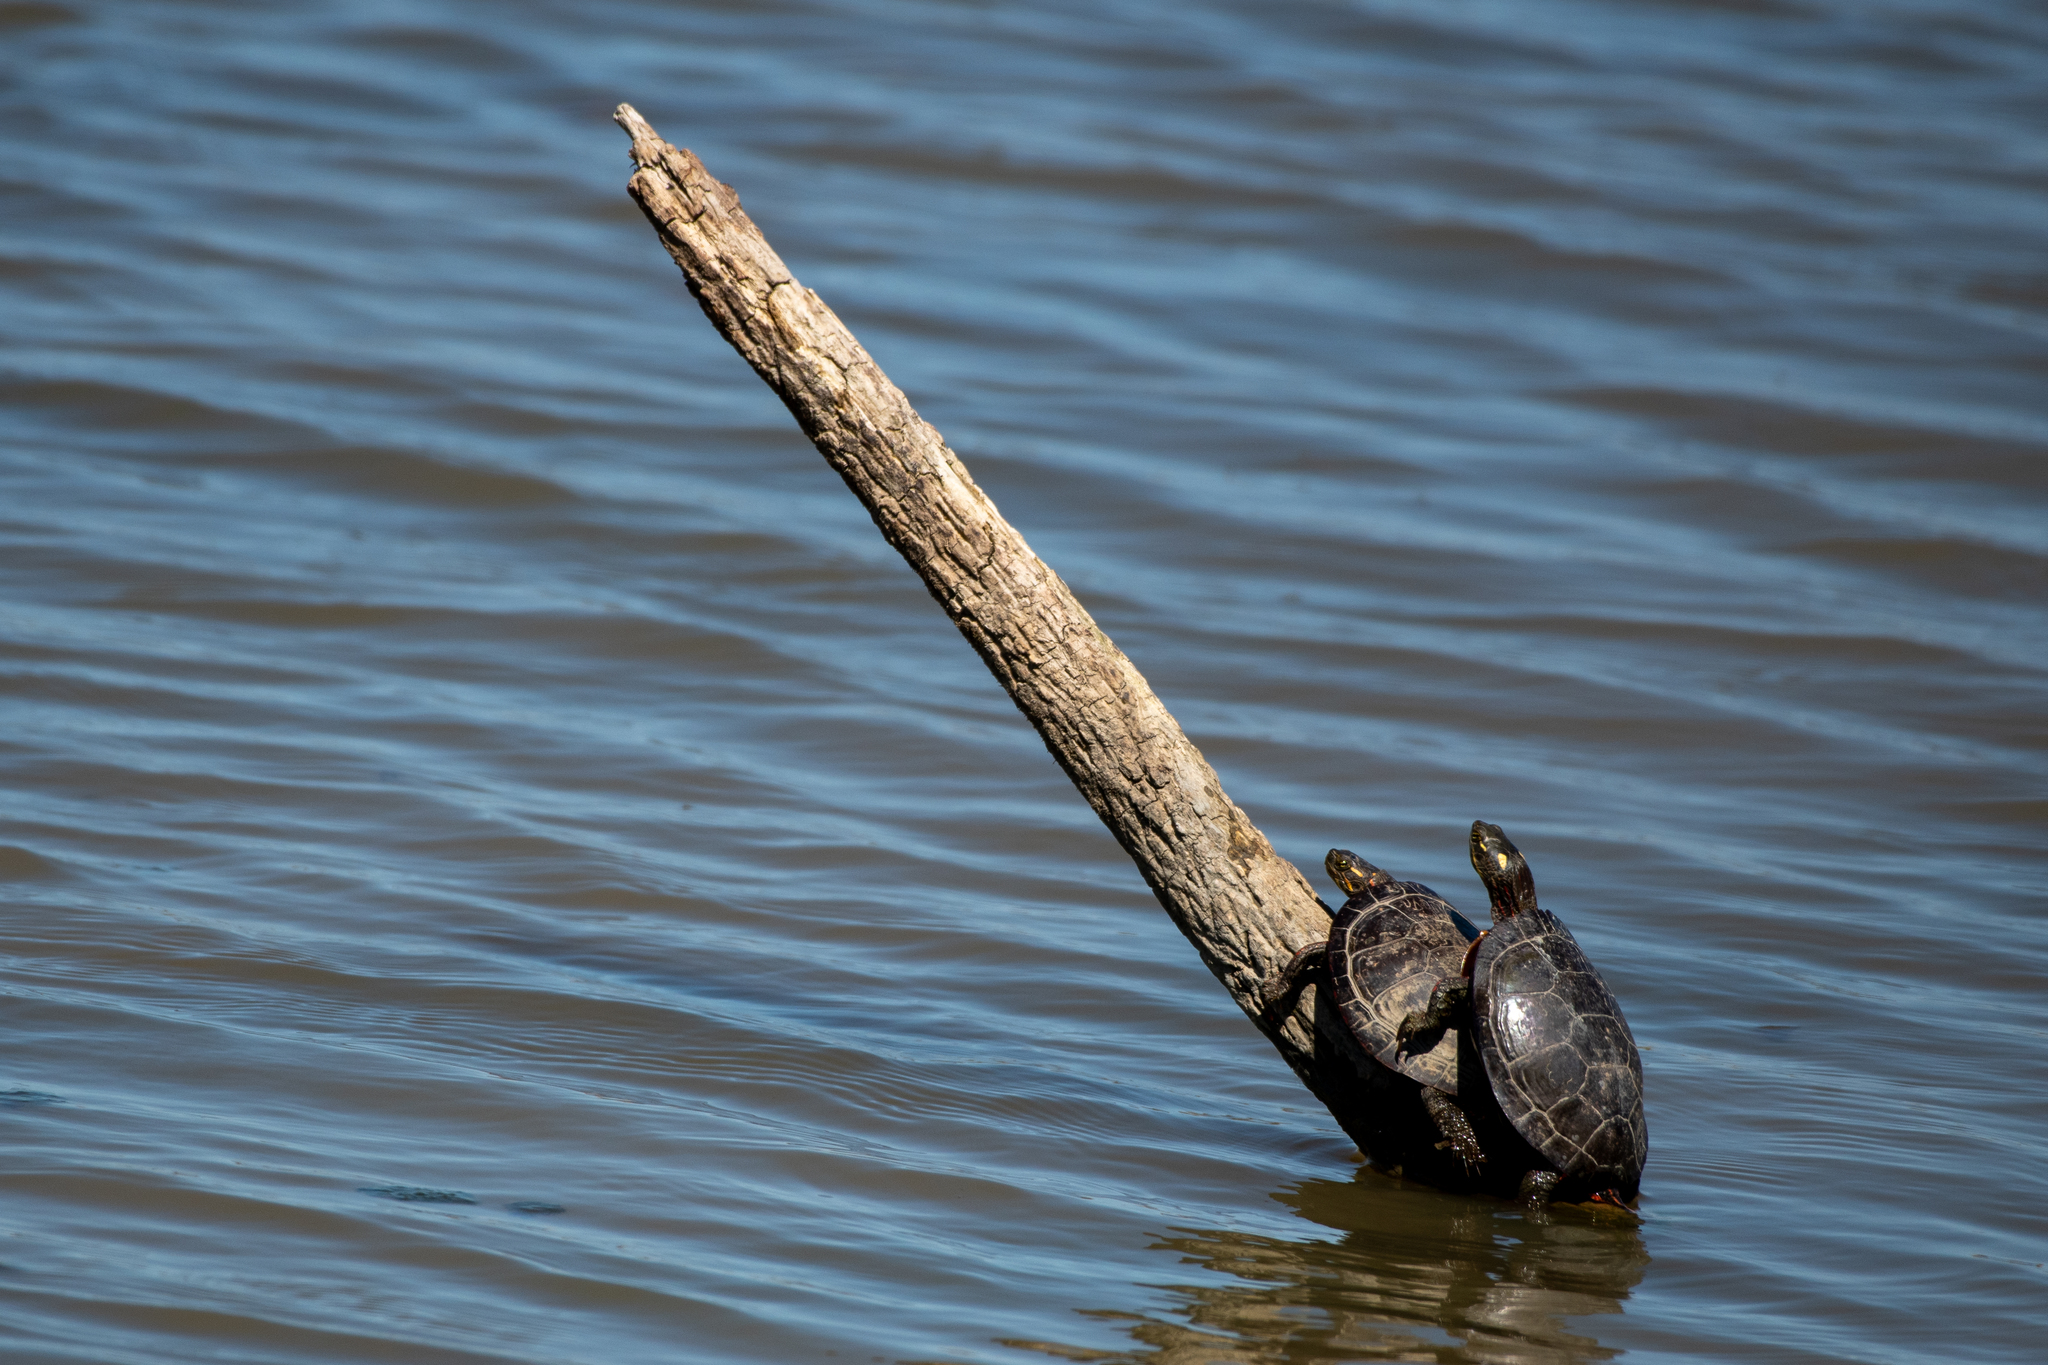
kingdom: Animalia
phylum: Chordata
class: Testudines
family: Emydidae
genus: Chrysemys
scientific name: Chrysemys picta
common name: Painted turtle
